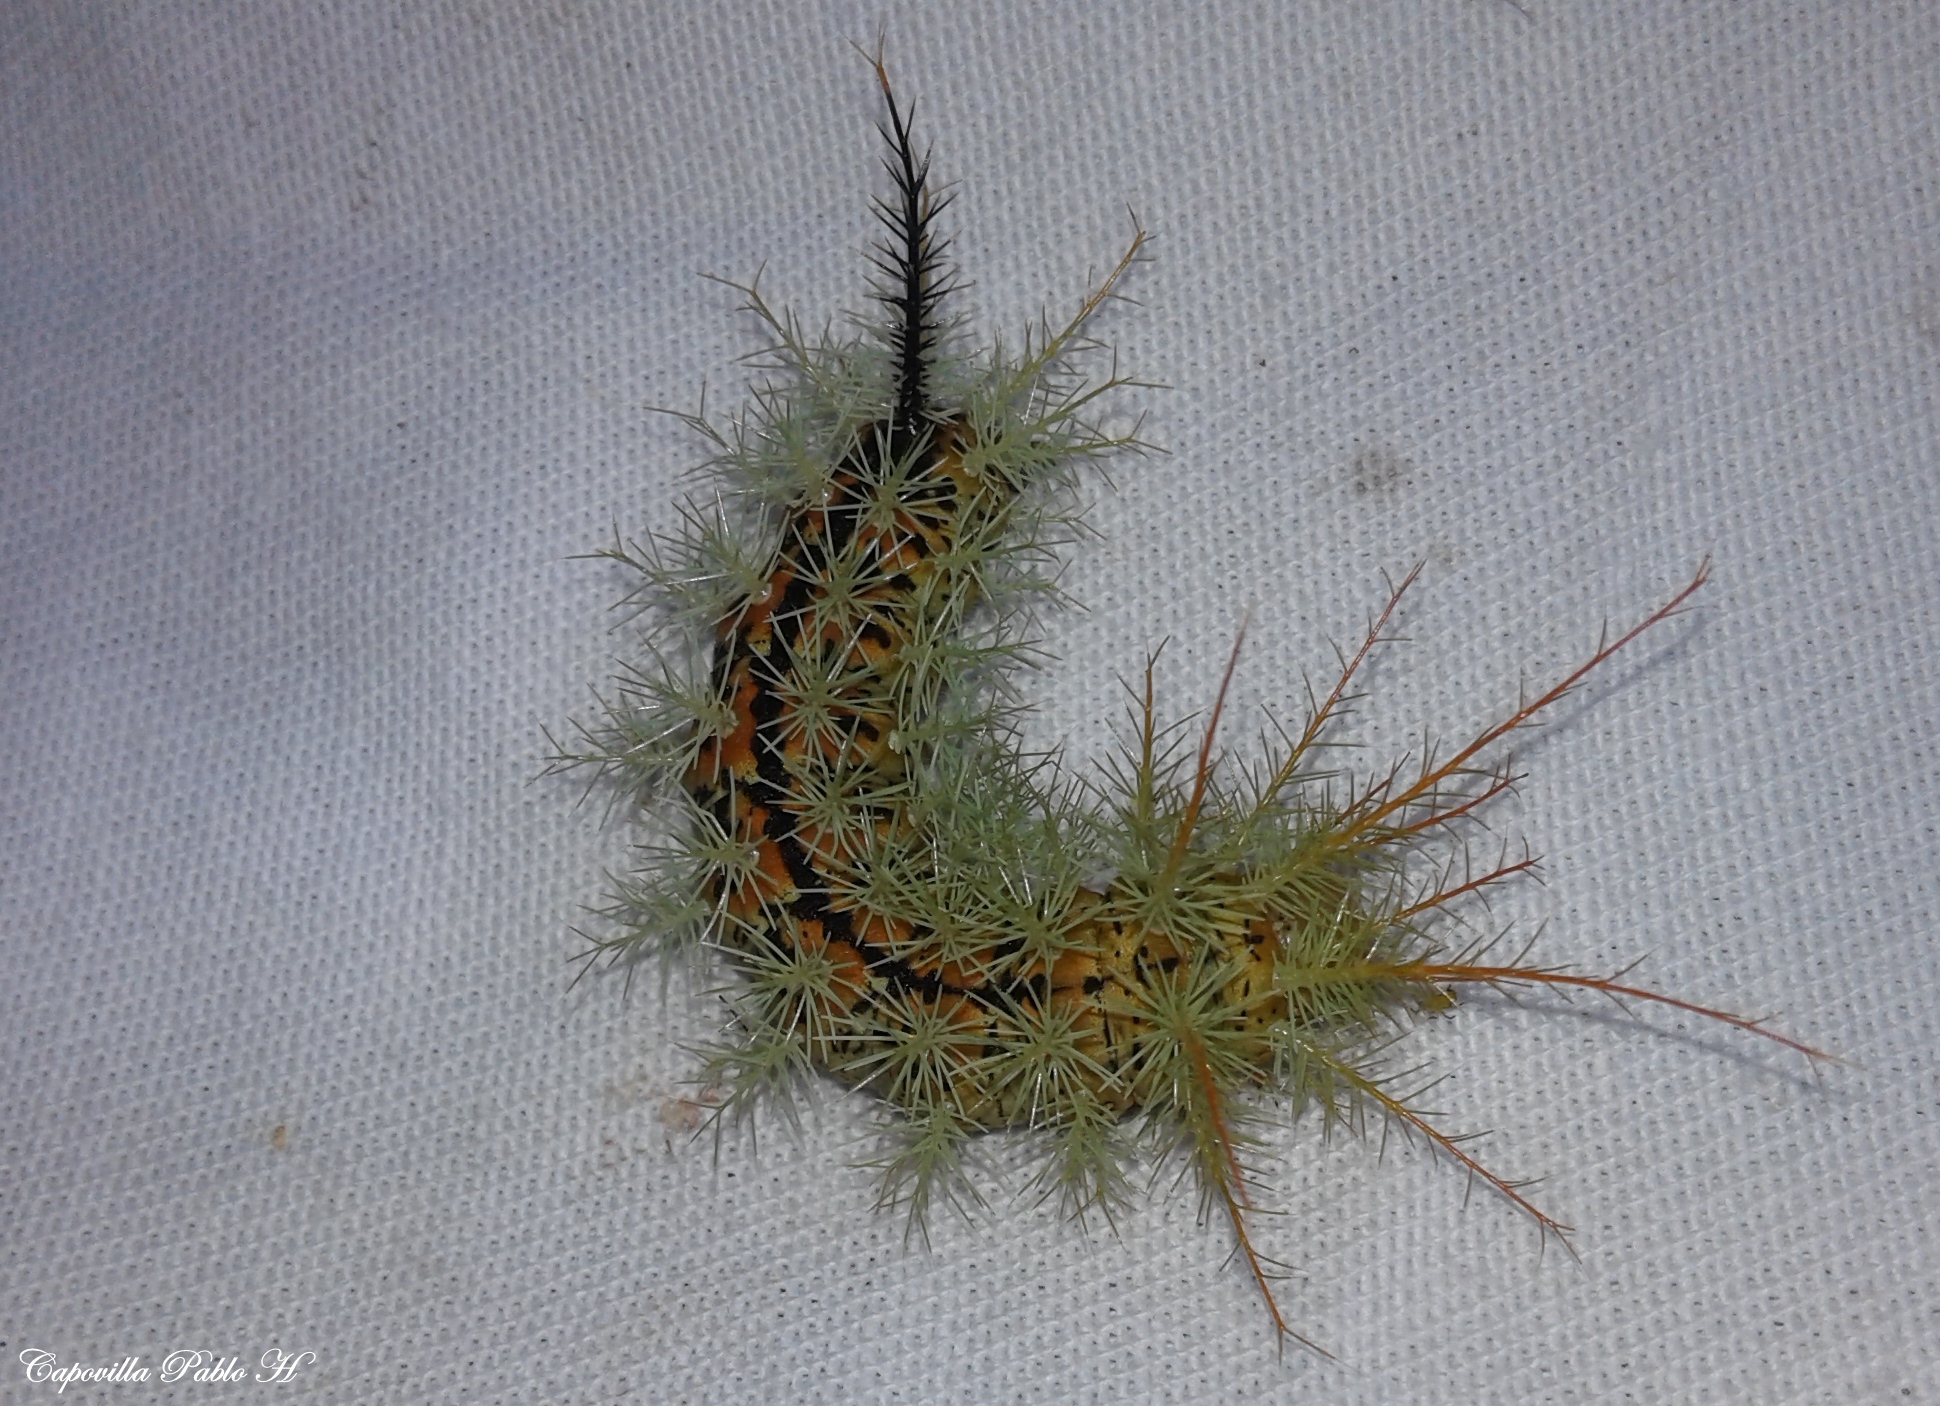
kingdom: Animalia
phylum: Arthropoda
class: Insecta
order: Lepidoptera
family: Saturniidae
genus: Pseudautomeris
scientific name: Pseudautomeris luteata
